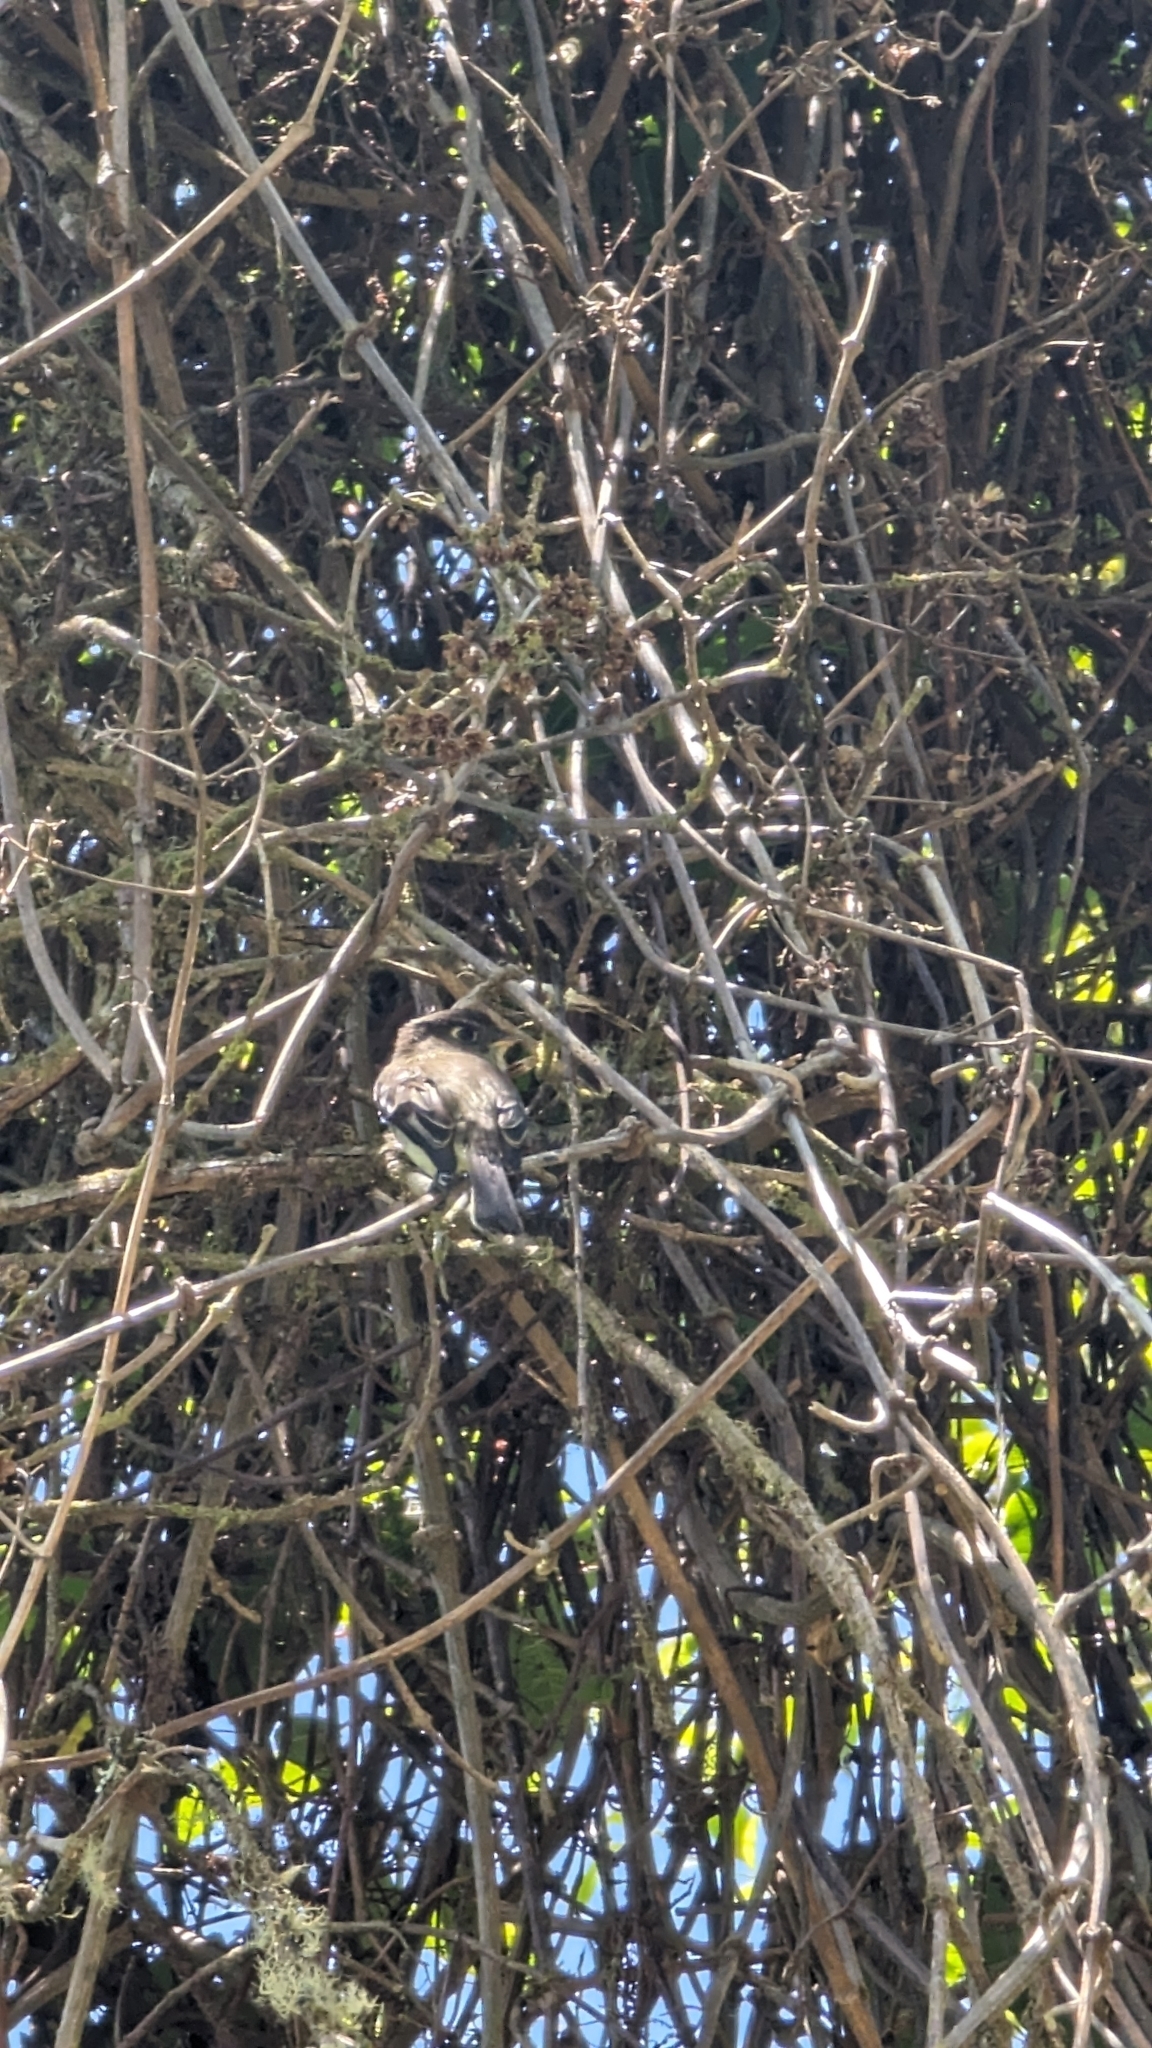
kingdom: Animalia
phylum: Chordata
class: Aves
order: Passeriformes
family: Tyrannidae
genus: Empidonax
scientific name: Empidonax atriceps
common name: Black-capped flycatcher
